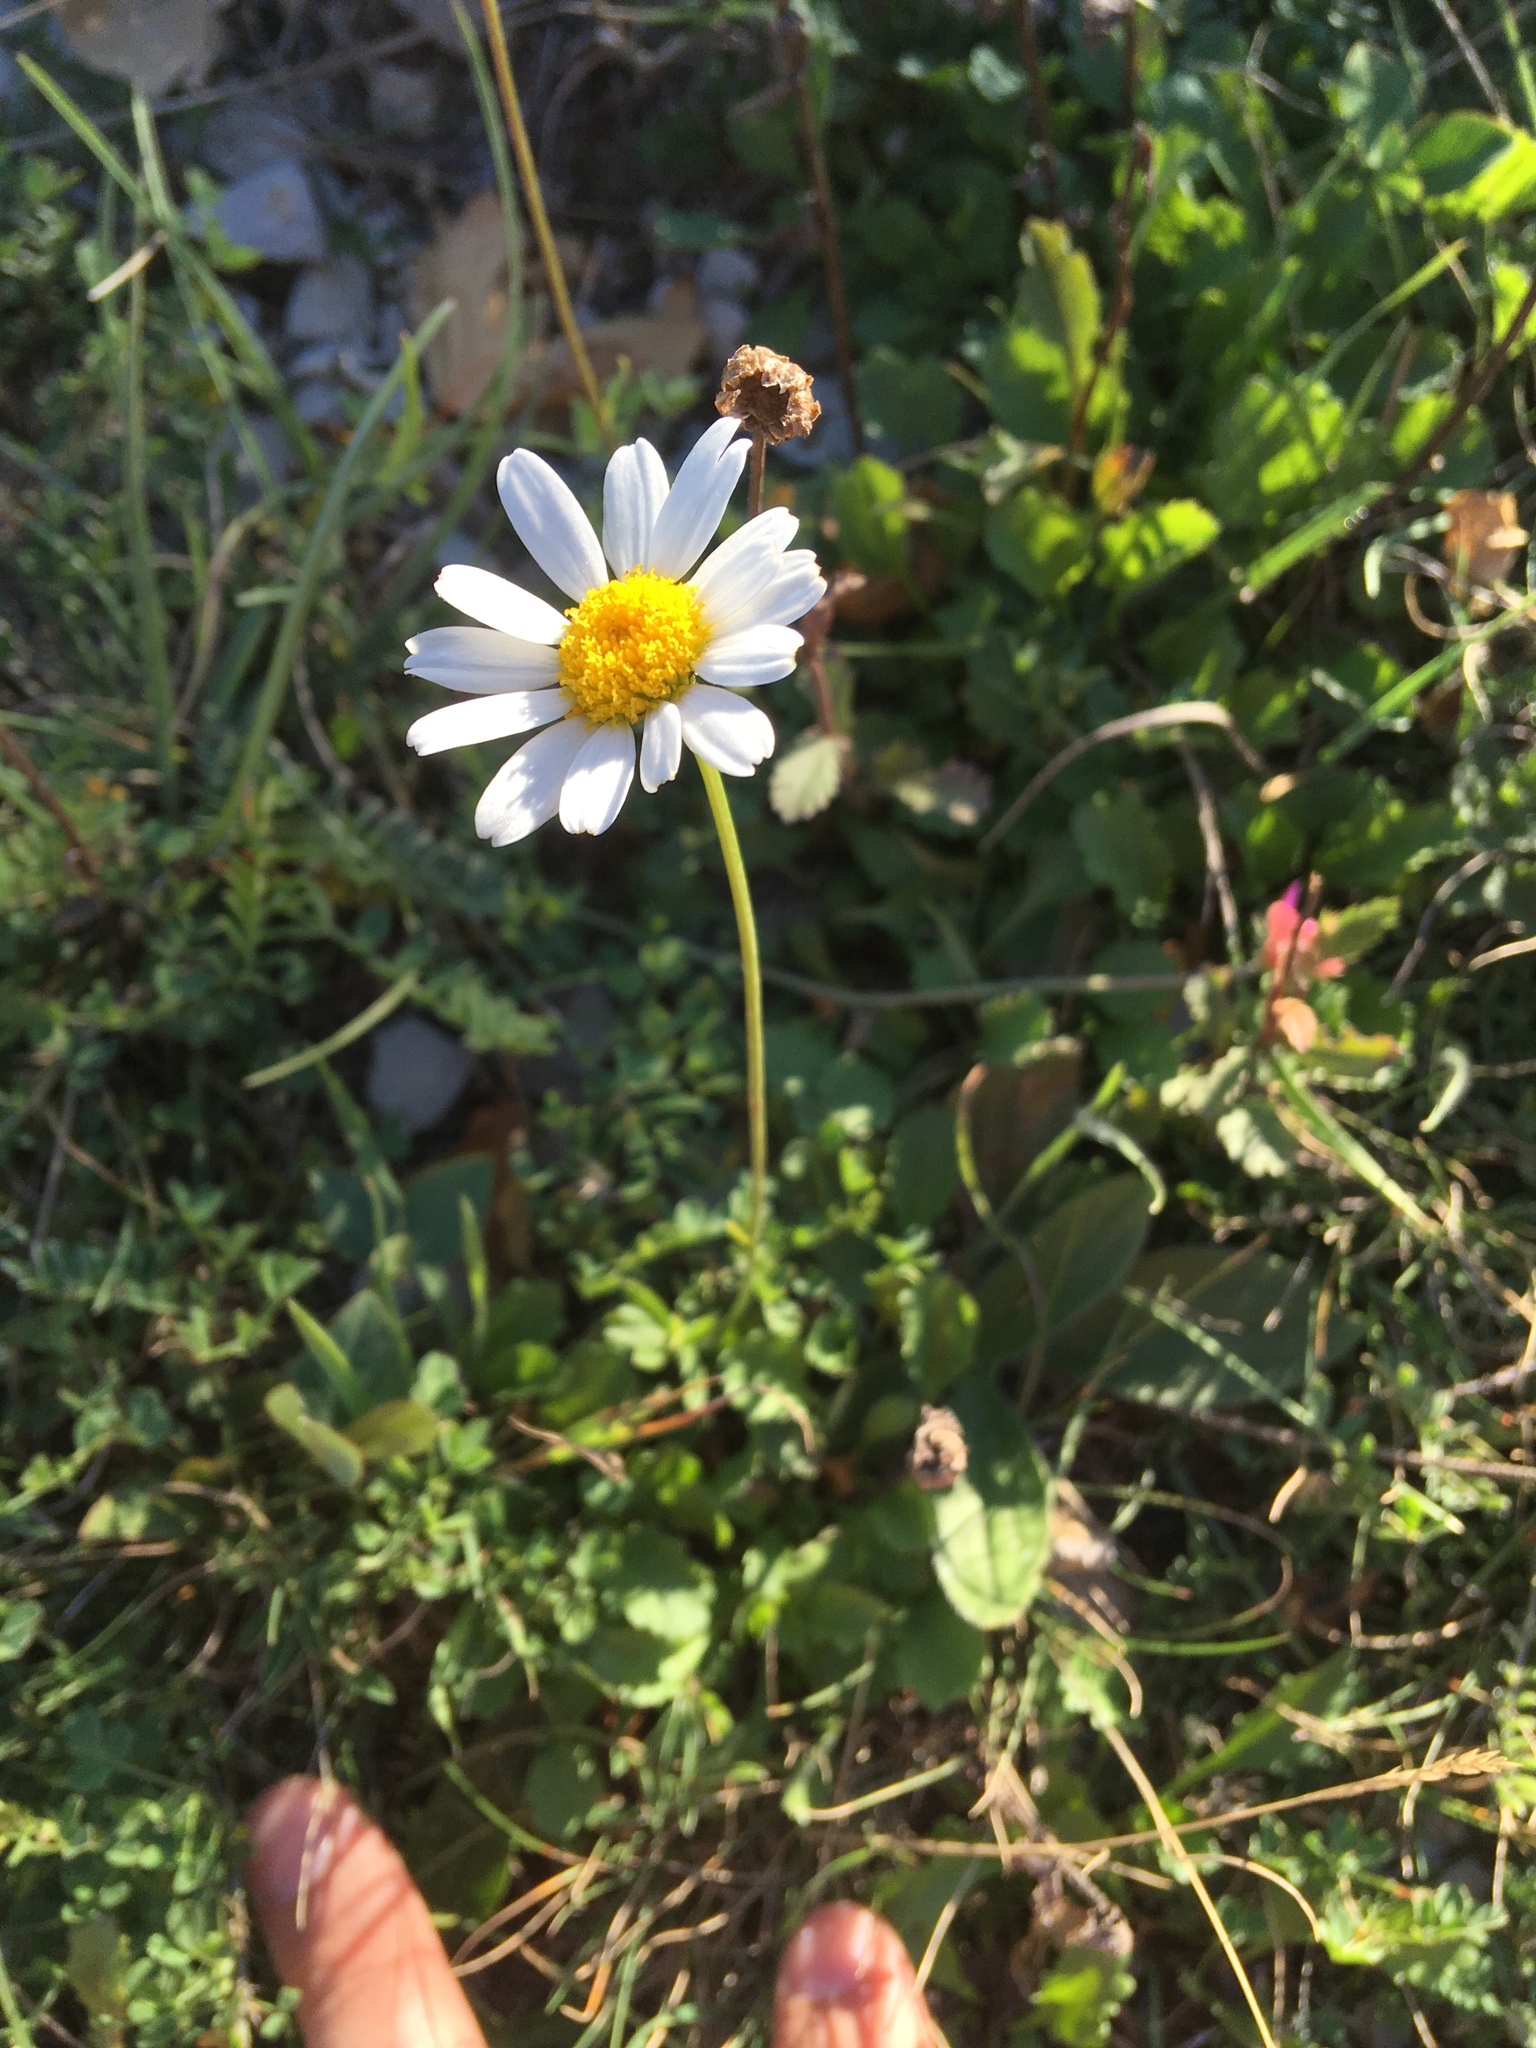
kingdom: Plantae
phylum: Tracheophyta
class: Magnoliopsida
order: Asterales
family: Asteraceae
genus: Leucanthemum
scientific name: Leucanthemum vulgare
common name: Oxeye daisy
